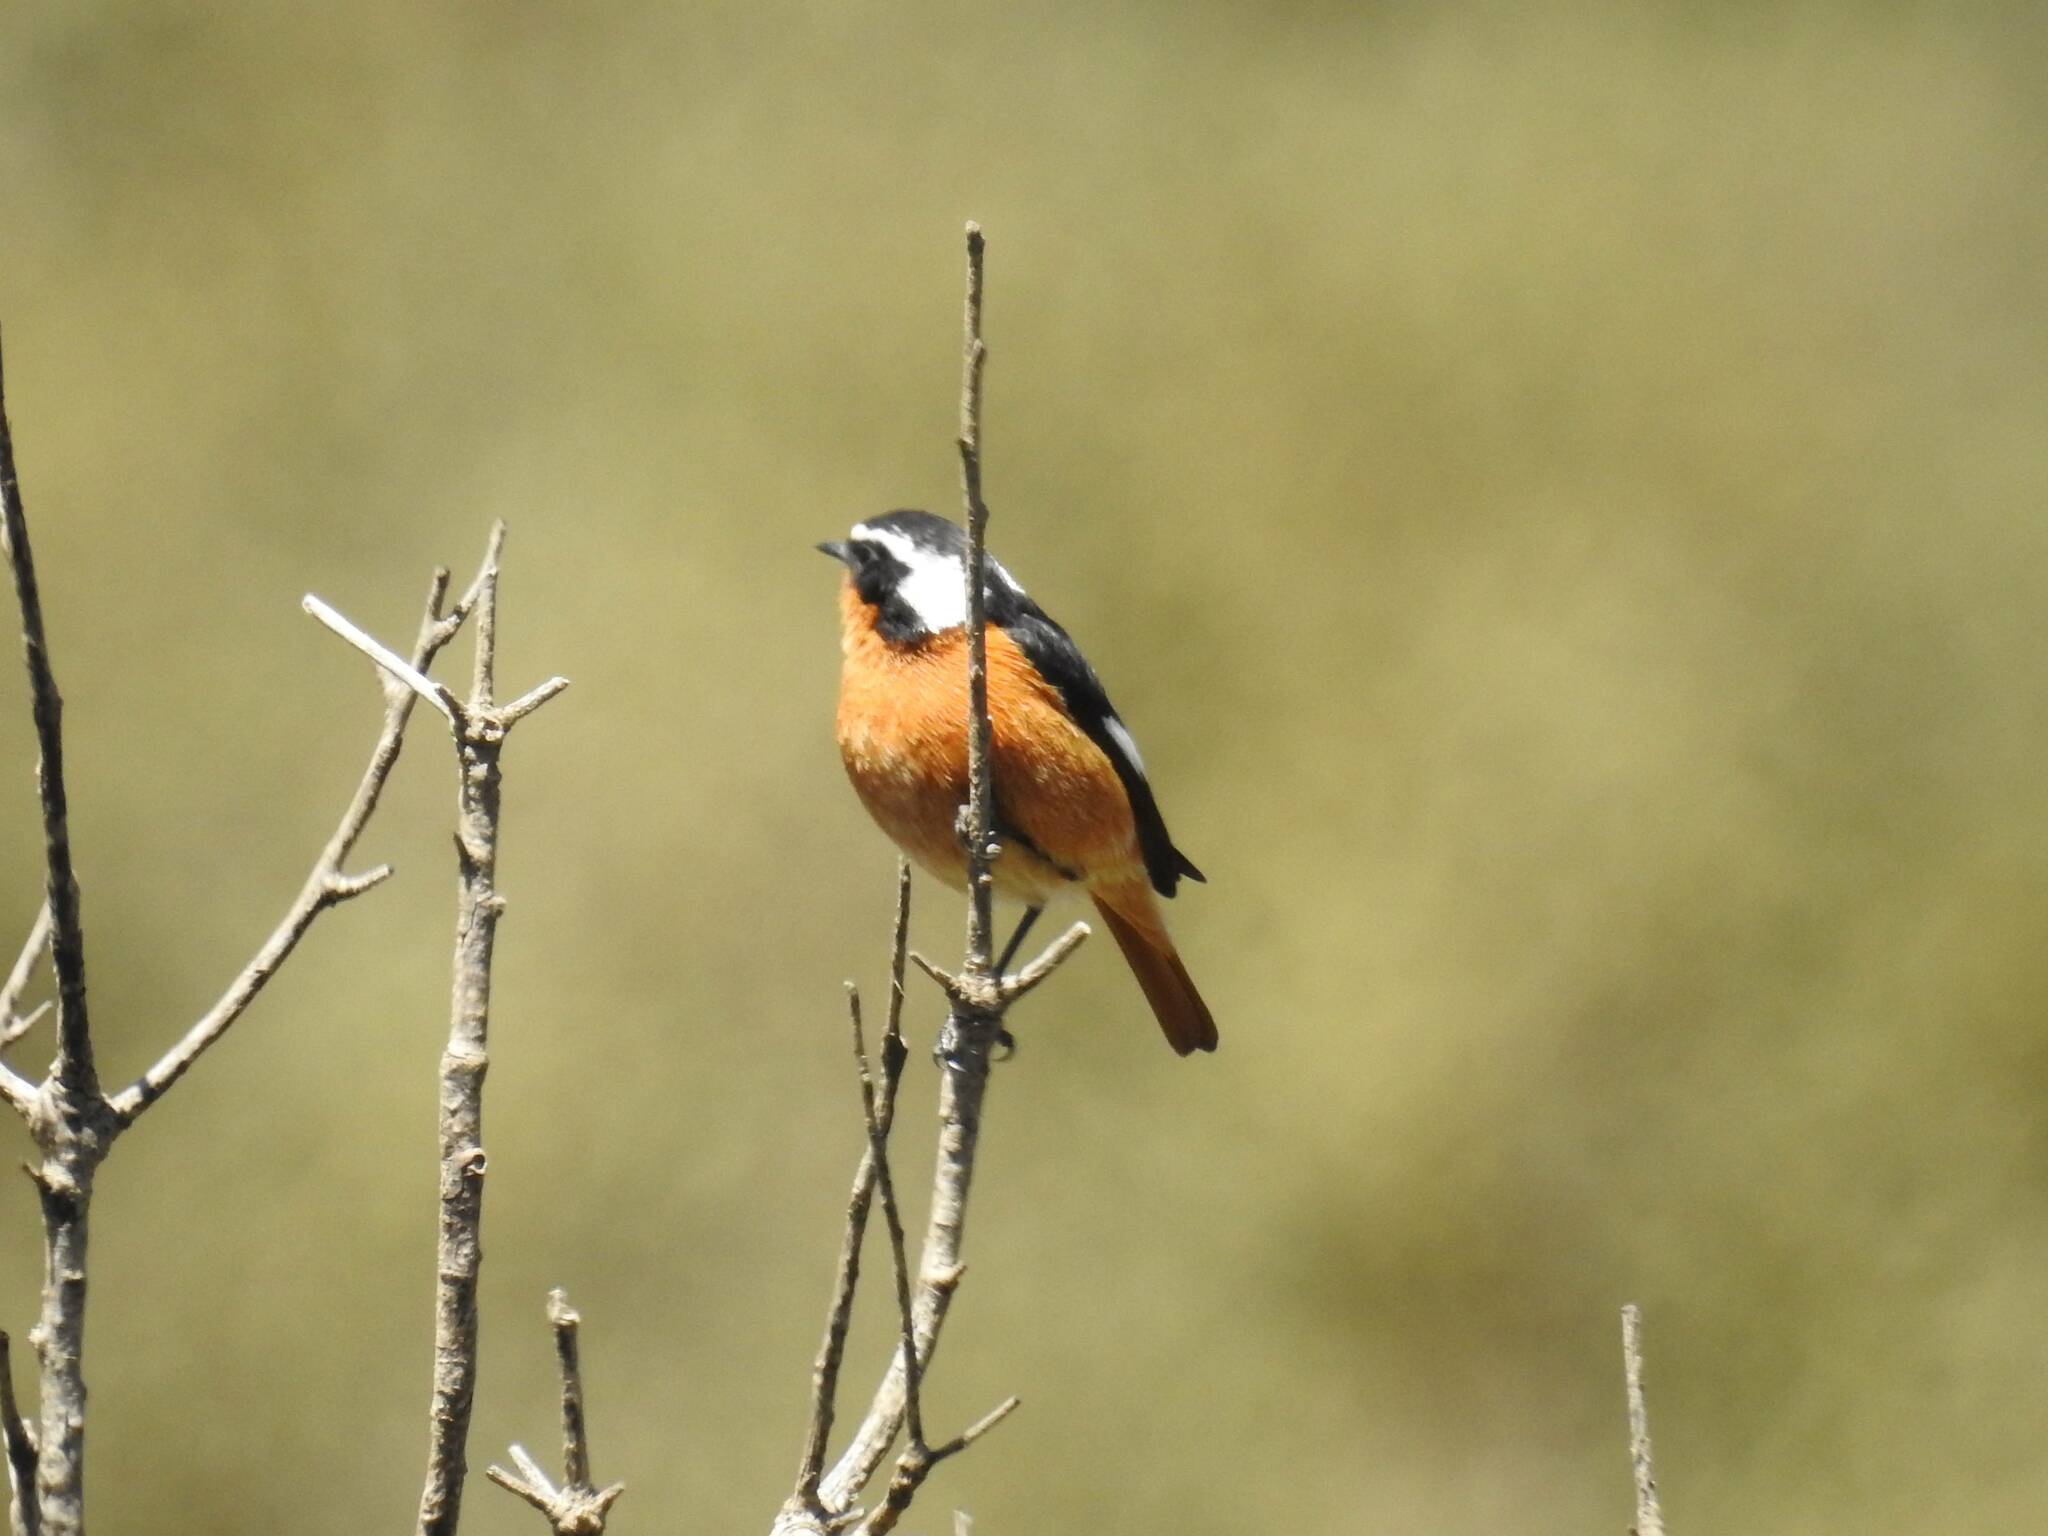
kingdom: Animalia
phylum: Chordata
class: Aves
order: Passeriformes
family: Muscicapidae
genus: Phoenicurus
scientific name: Phoenicurus moussieri
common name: Moussier's redstart
